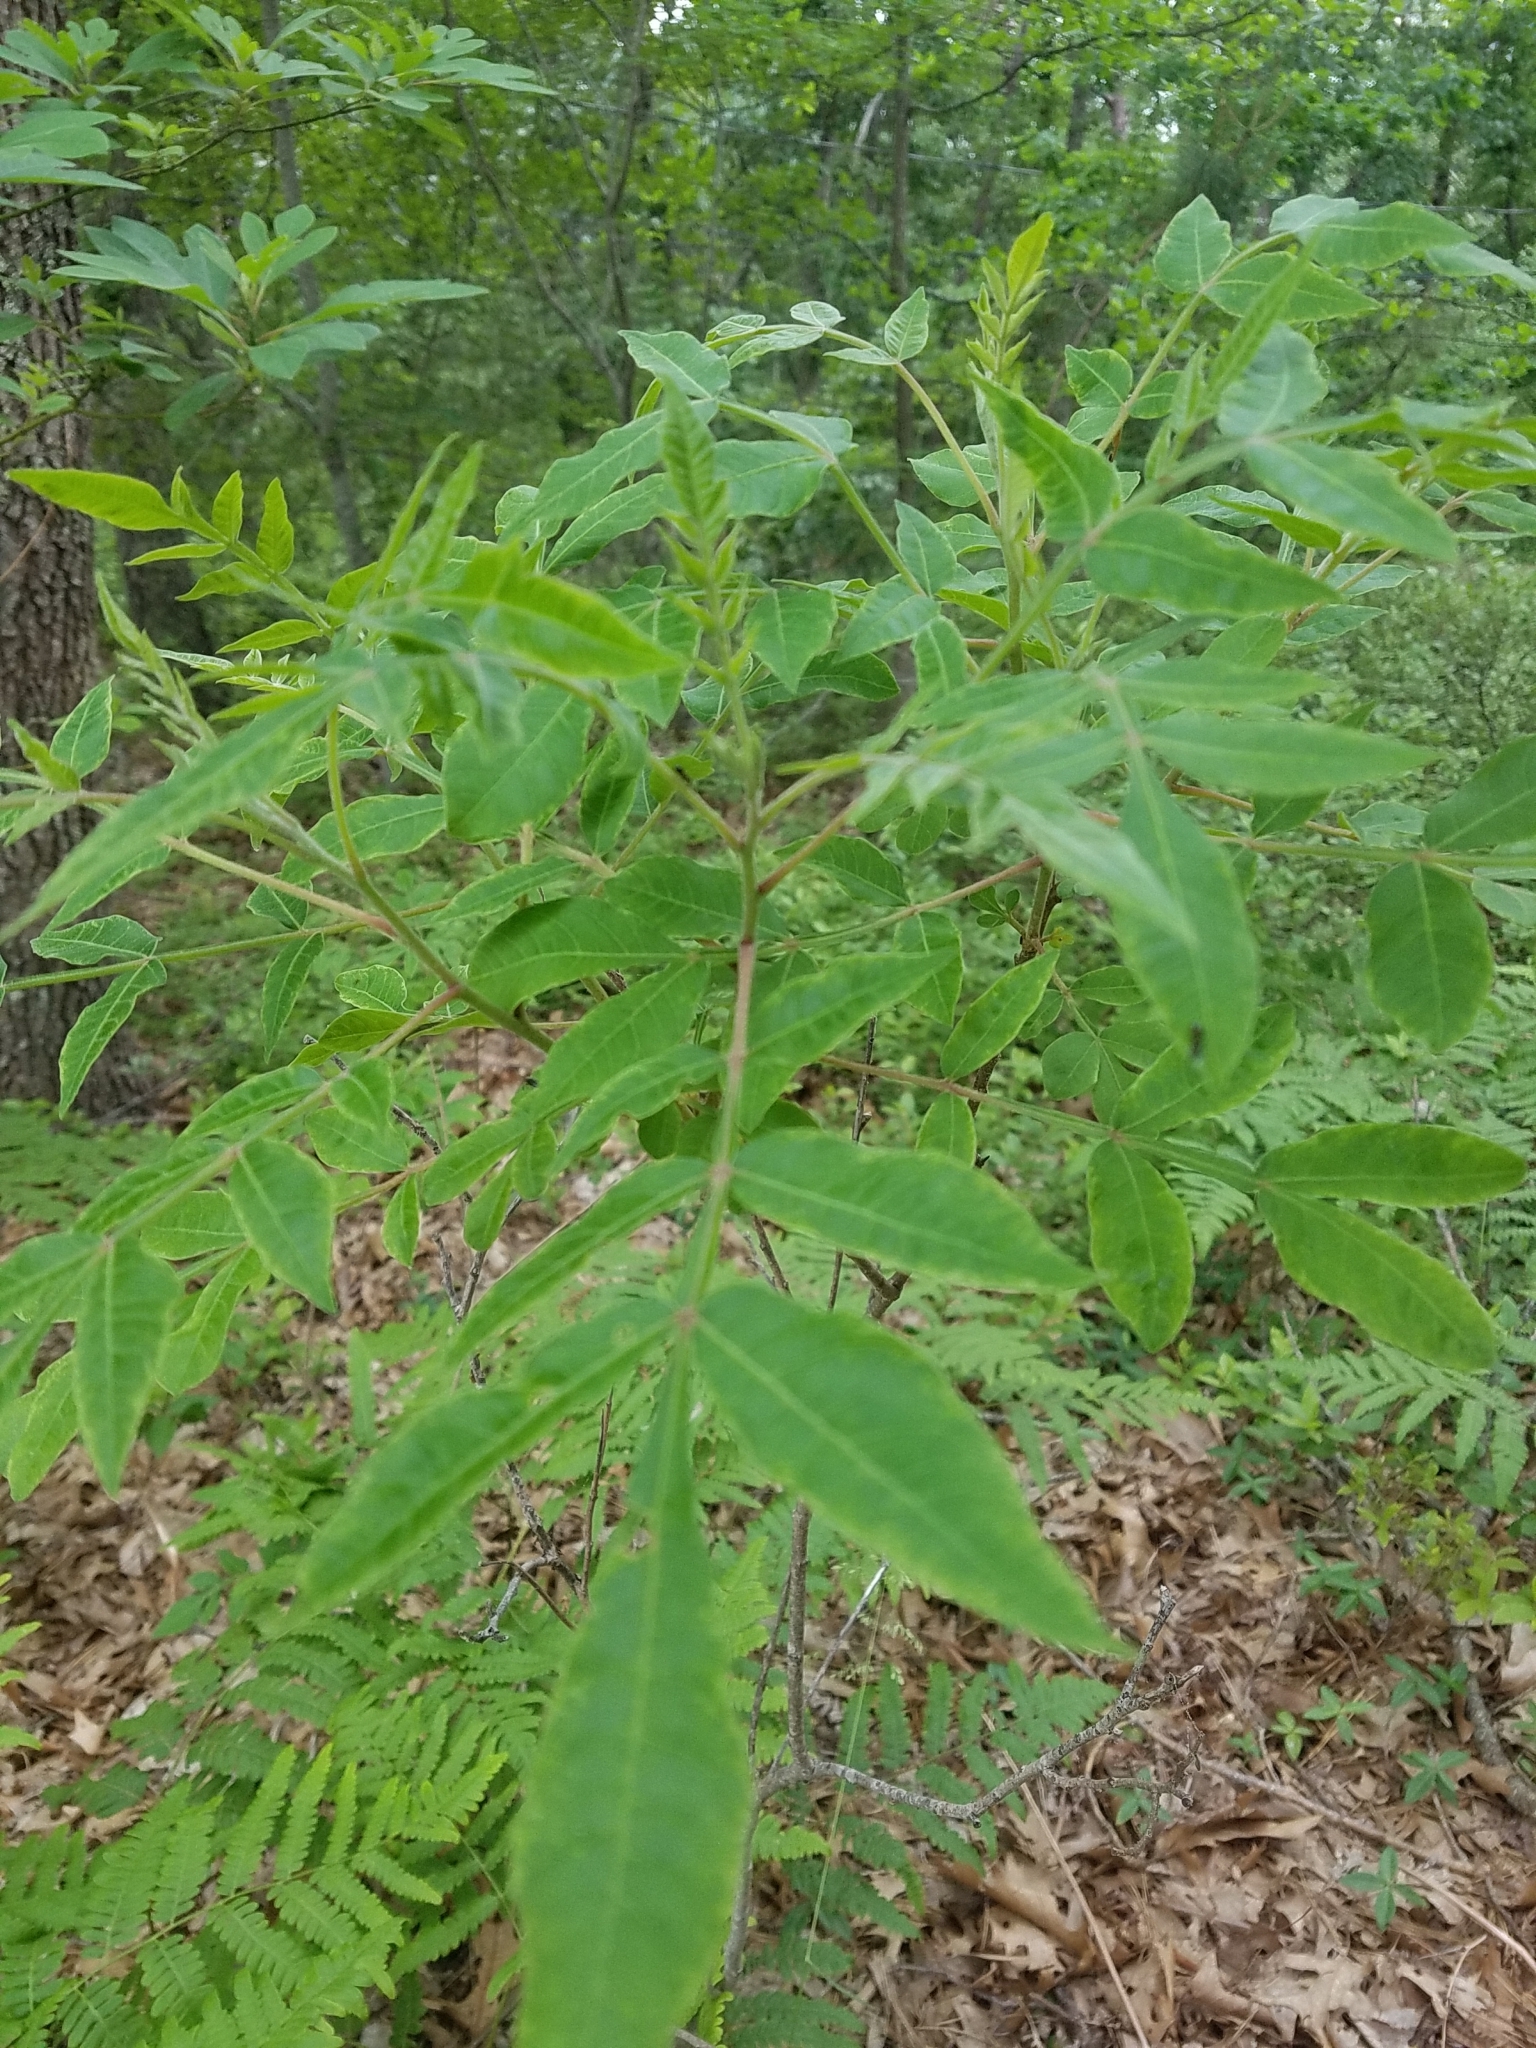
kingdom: Plantae
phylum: Tracheophyta
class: Magnoliopsida
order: Sapindales
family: Anacardiaceae
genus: Rhus
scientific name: Rhus copallina
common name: Shining sumac
